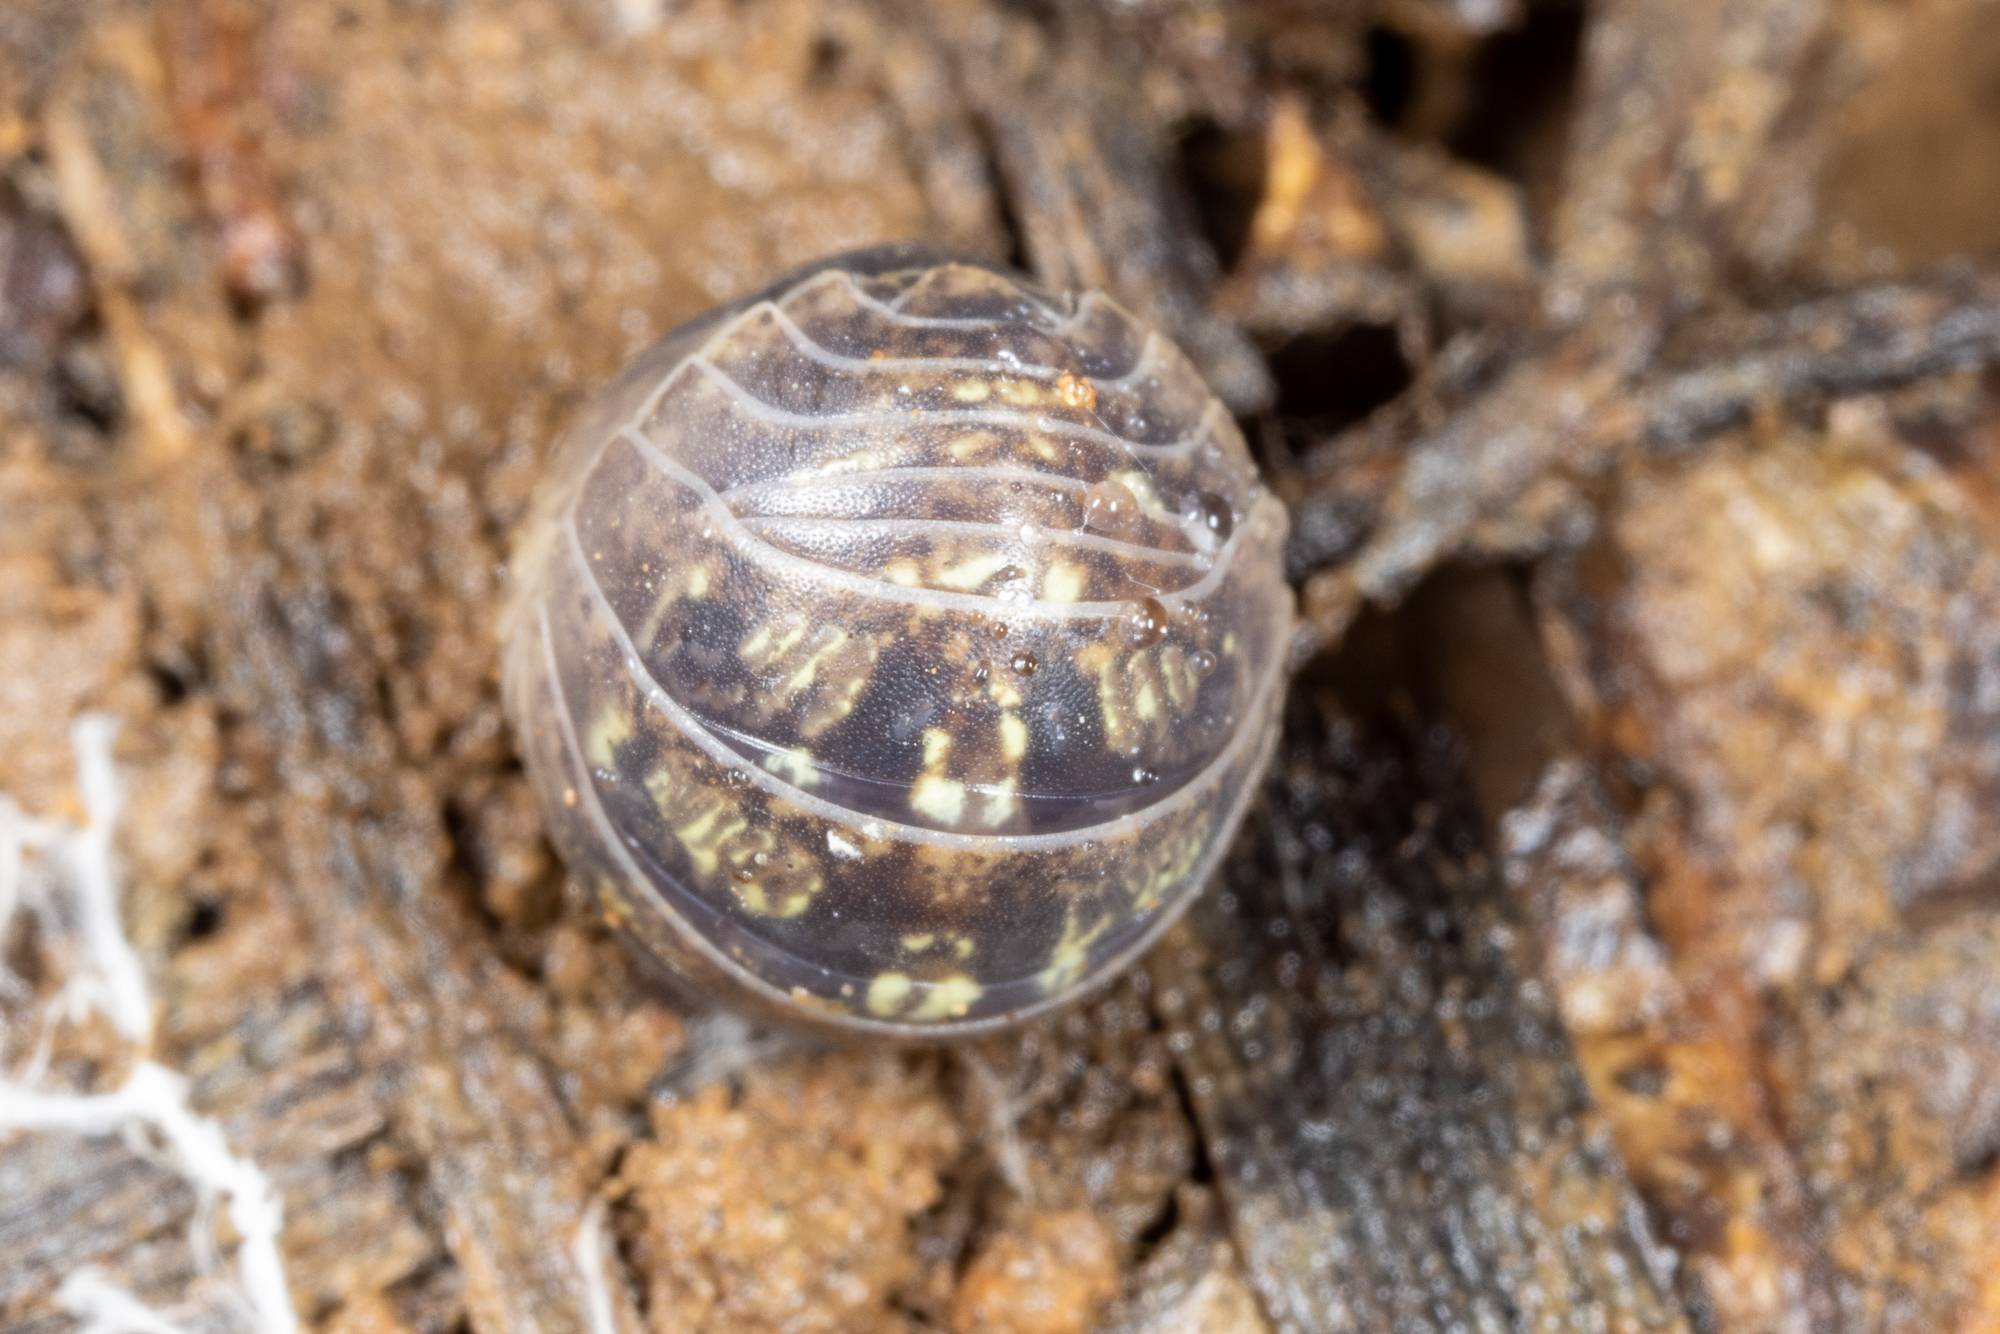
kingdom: Animalia
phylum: Arthropoda
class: Malacostraca
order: Isopoda
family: Armadillidiidae
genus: Armadillidium
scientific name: Armadillidium vulgare
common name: Common pill woodlouse
